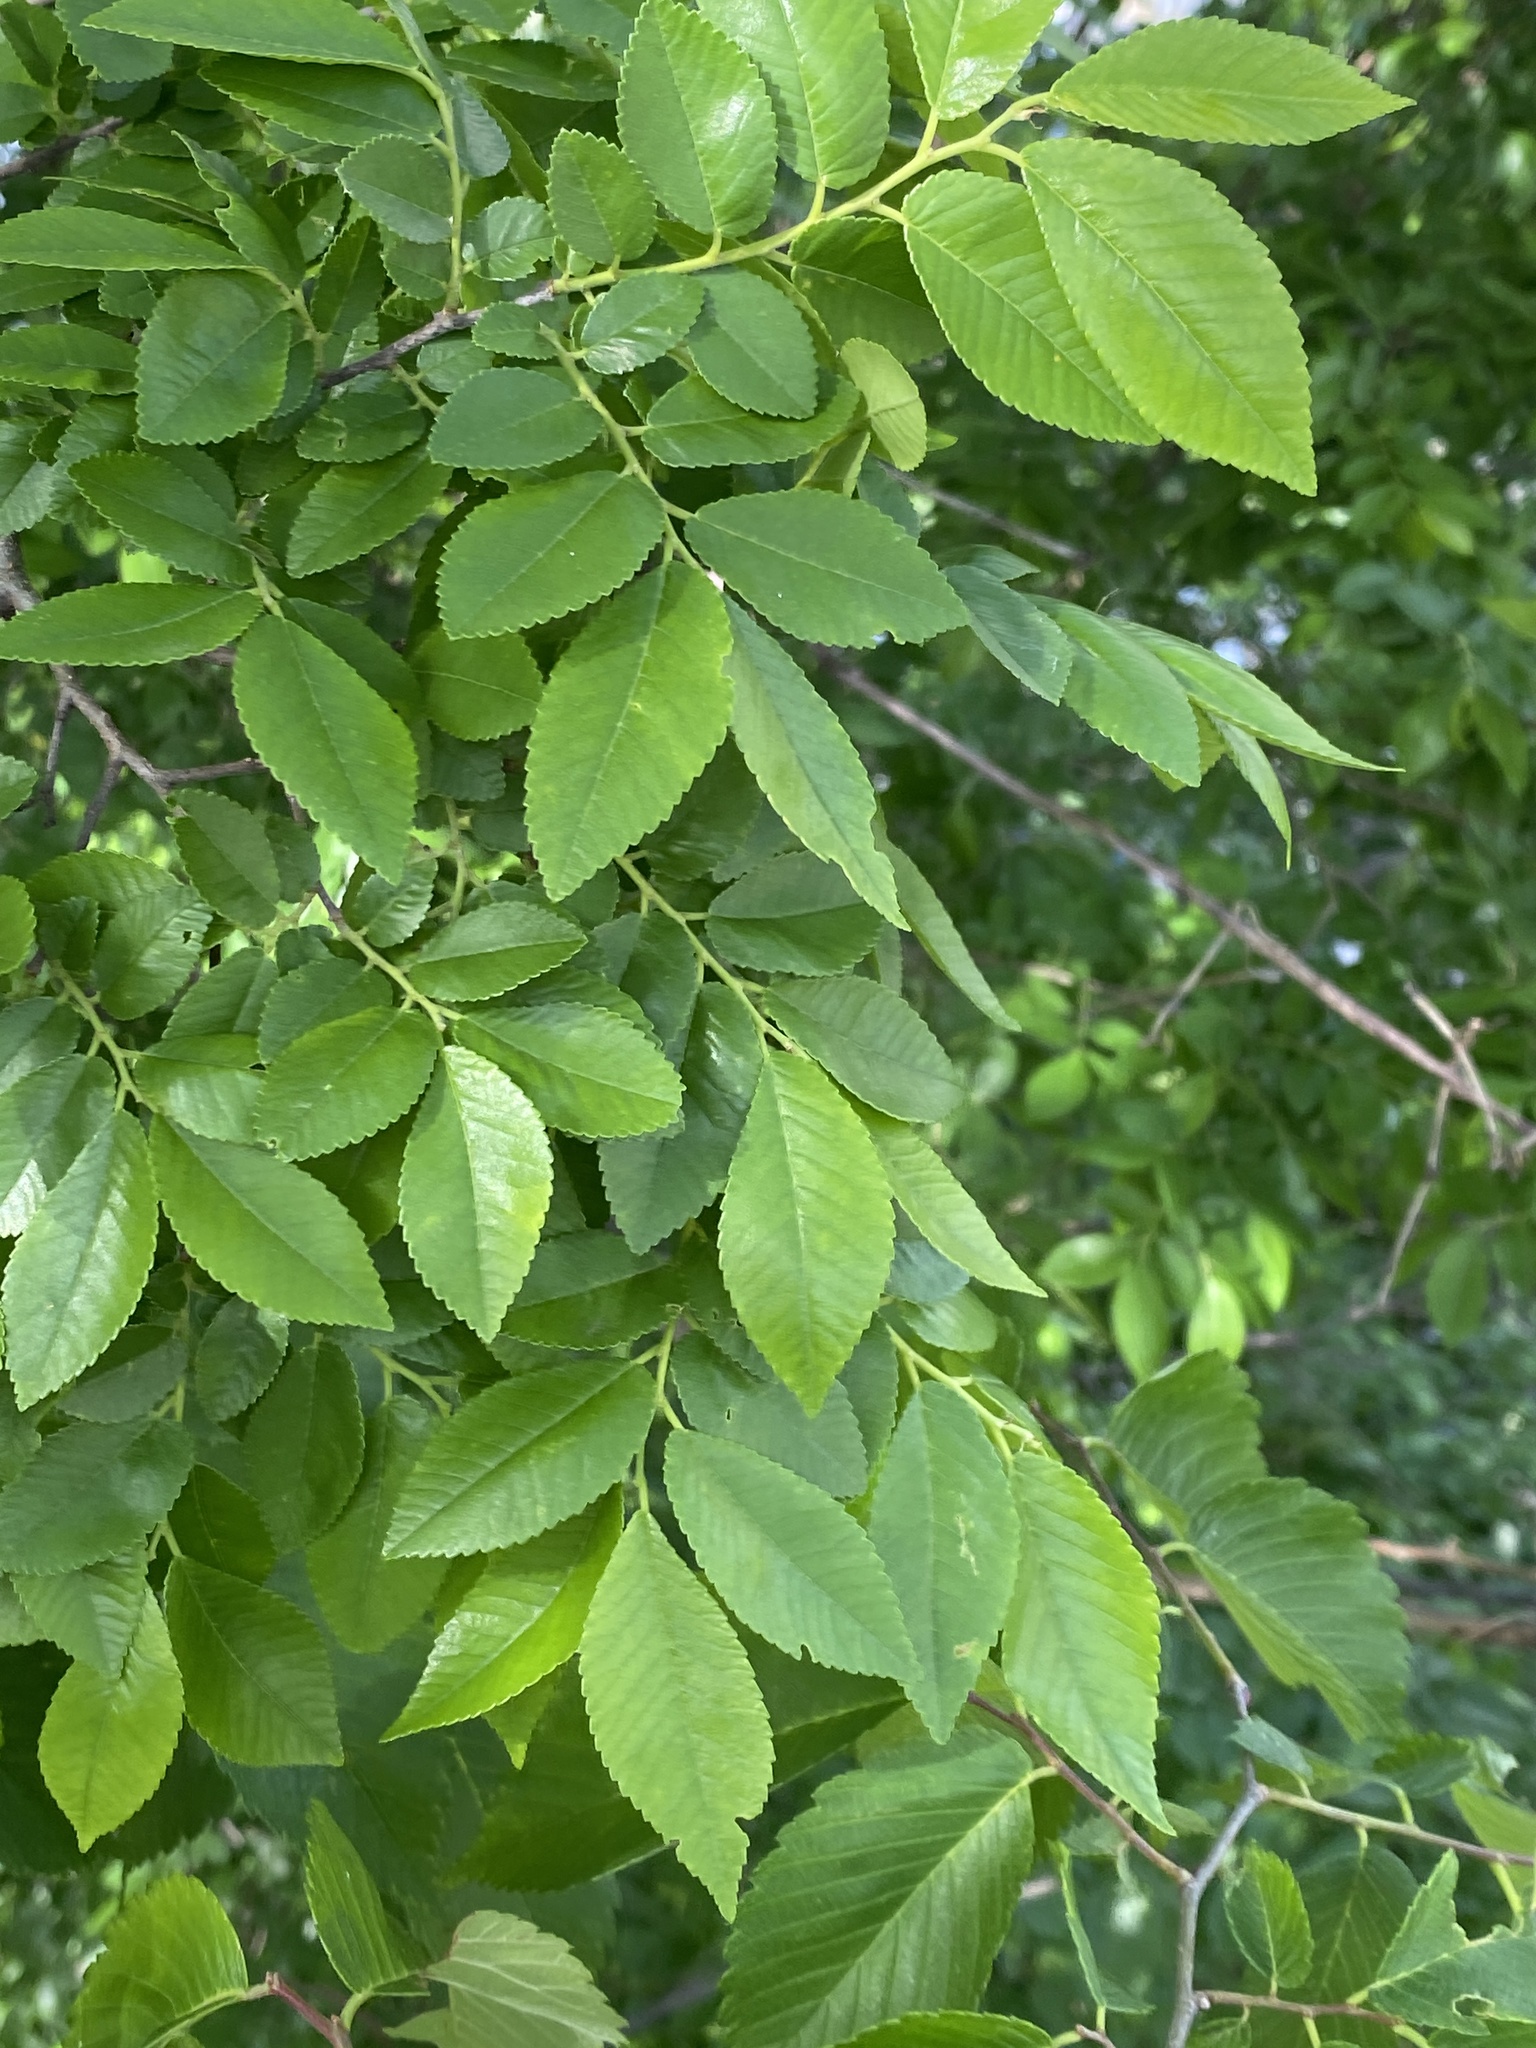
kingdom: Plantae
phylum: Tracheophyta
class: Magnoliopsida
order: Rosales
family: Ulmaceae
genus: Ulmus
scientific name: Ulmus parvifolia
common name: Chinese elm
